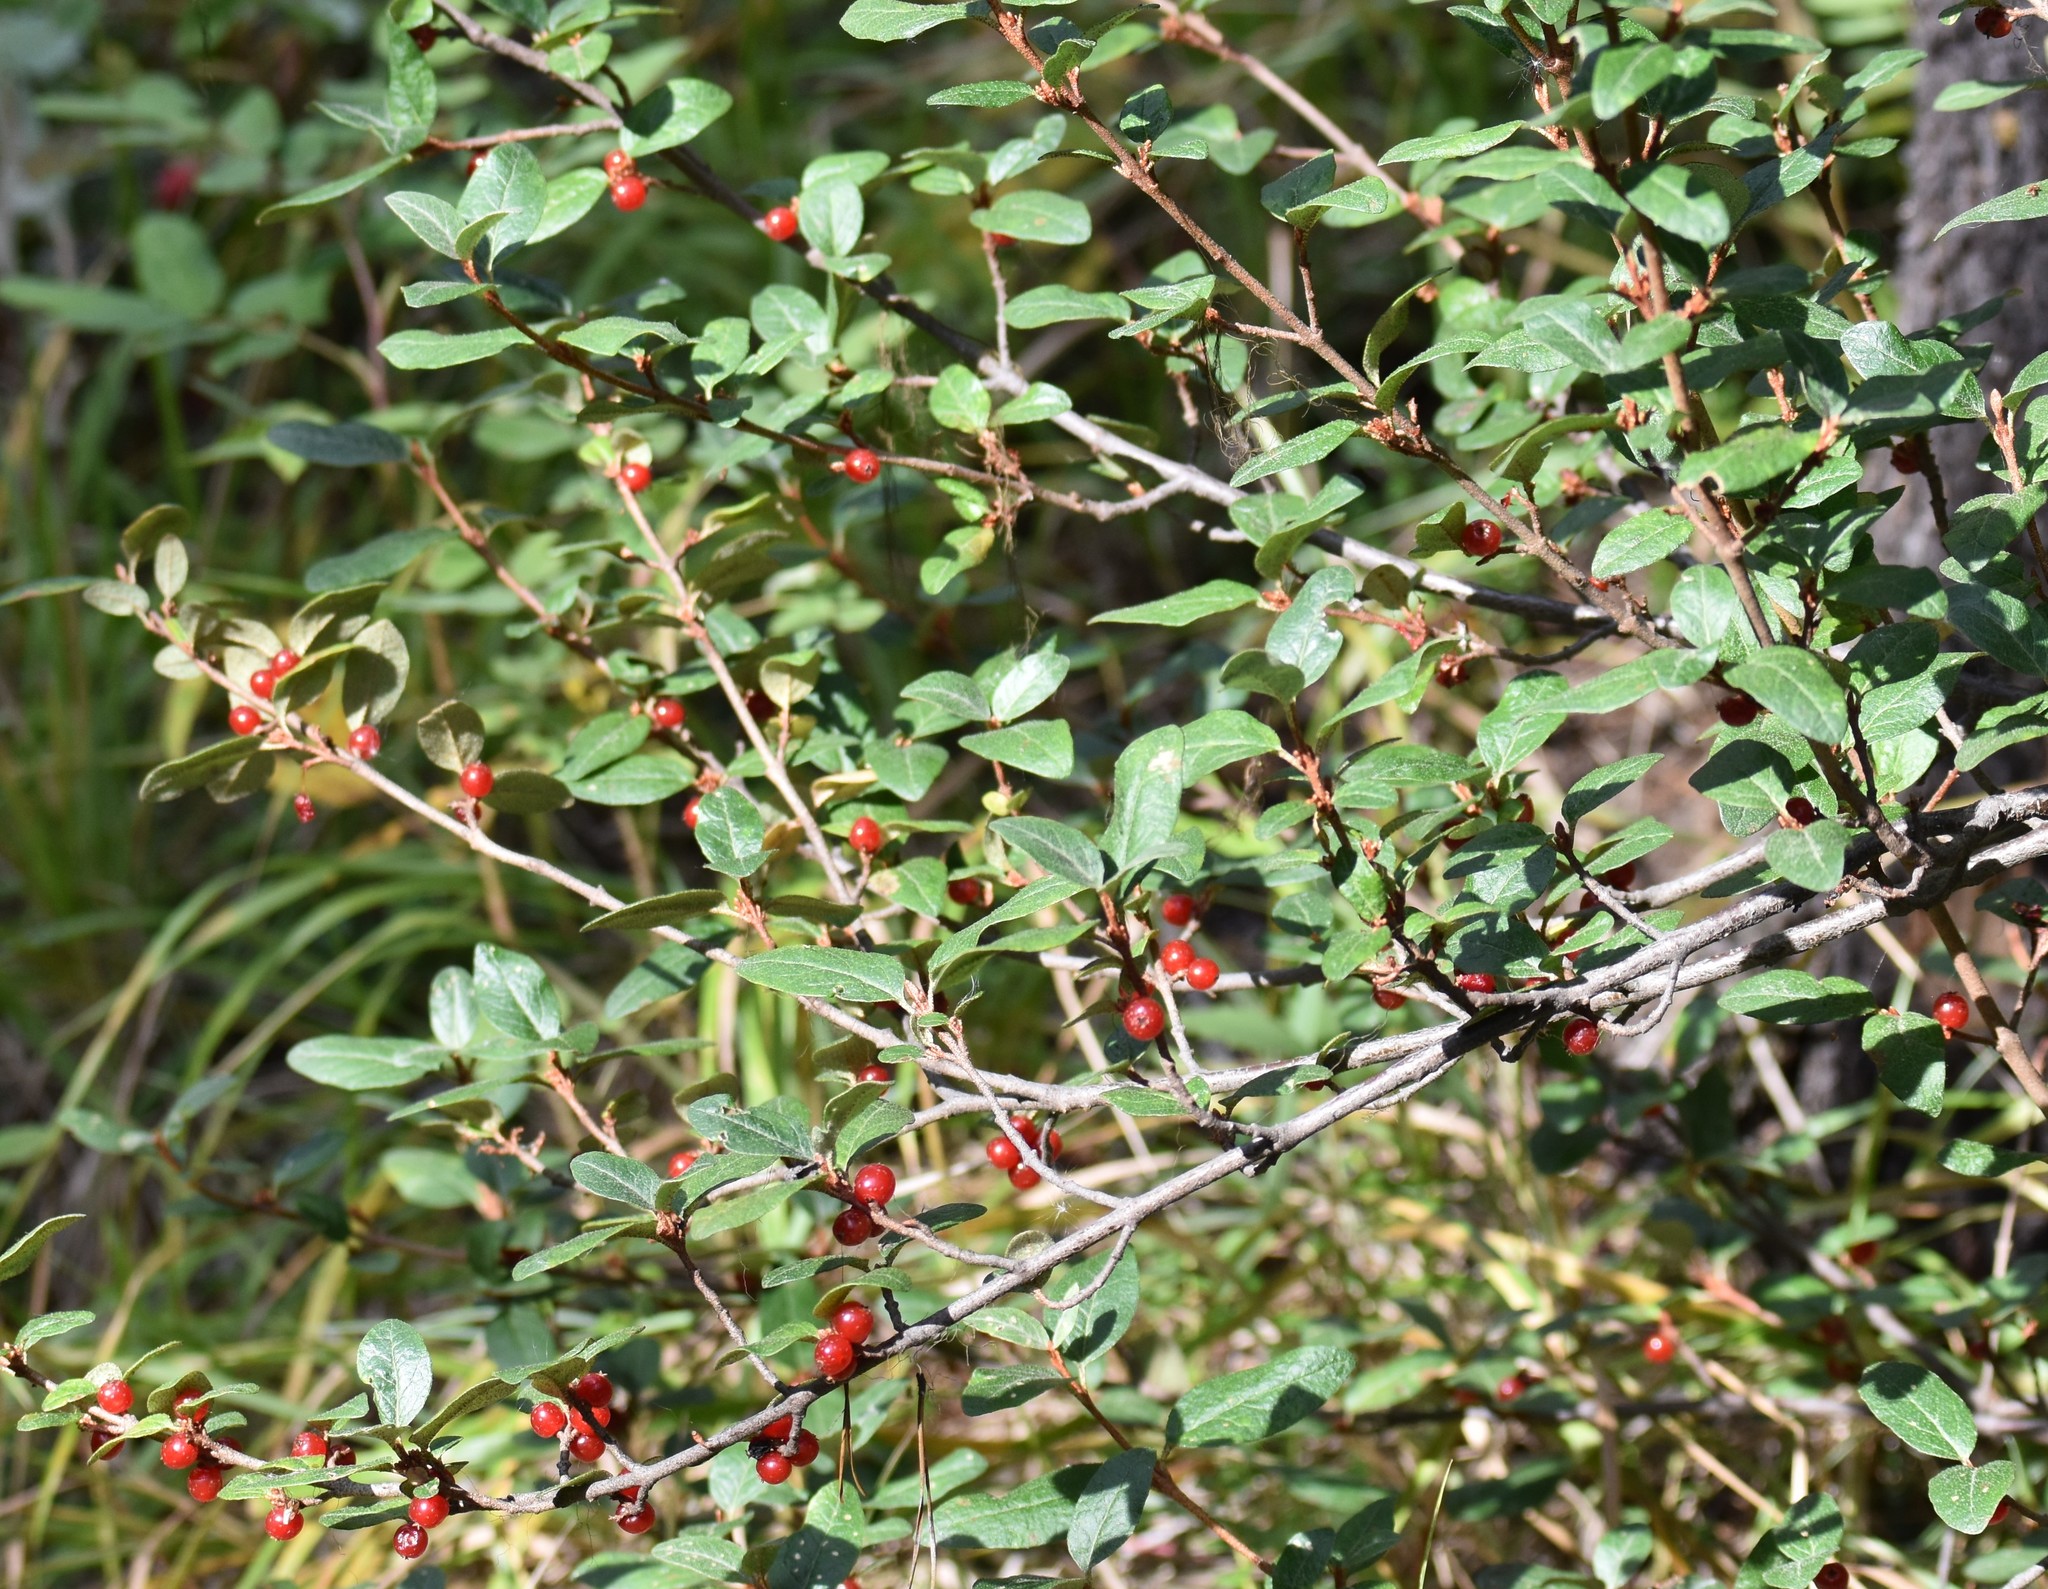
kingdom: Plantae
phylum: Tracheophyta
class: Magnoliopsida
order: Rosales
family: Elaeagnaceae
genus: Shepherdia
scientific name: Shepherdia canadensis
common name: Soapberry
